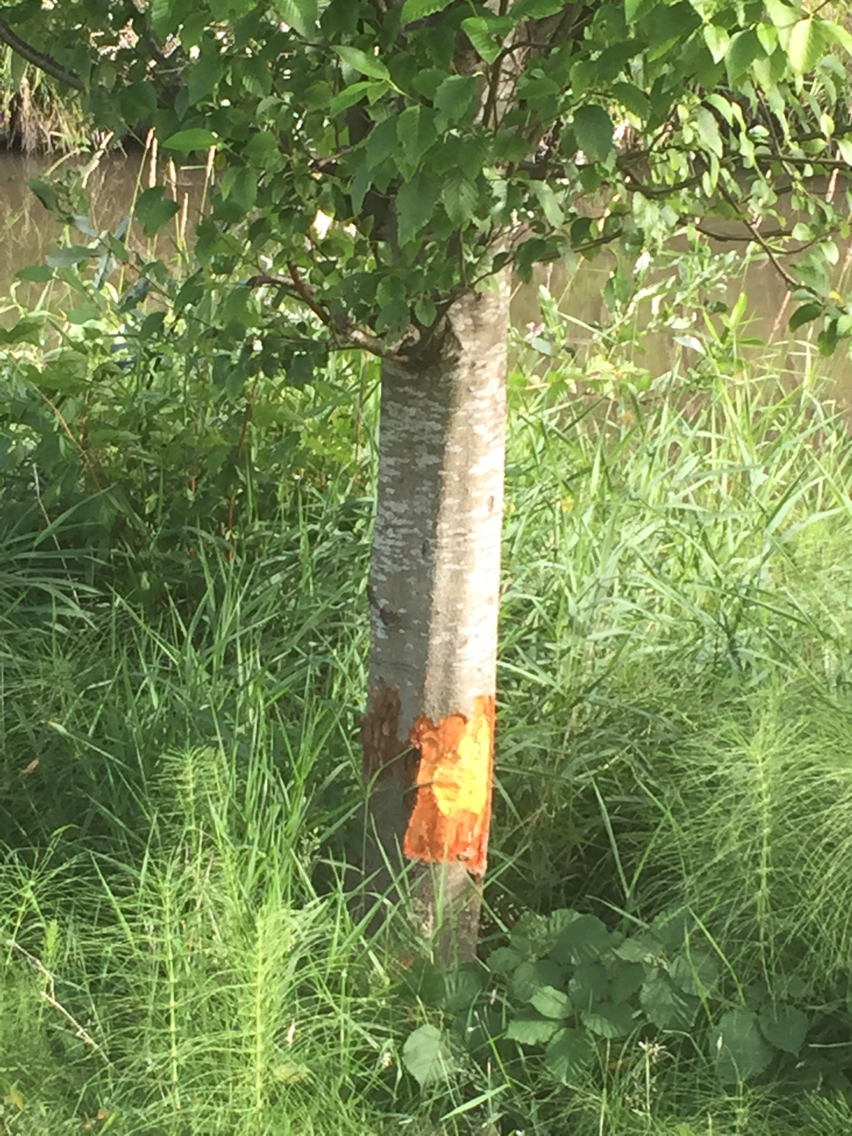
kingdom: Animalia
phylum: Chordata
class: Mammalia
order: Rodentia
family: Castoridae
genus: Castor
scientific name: Castor canadensis
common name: American beaver
